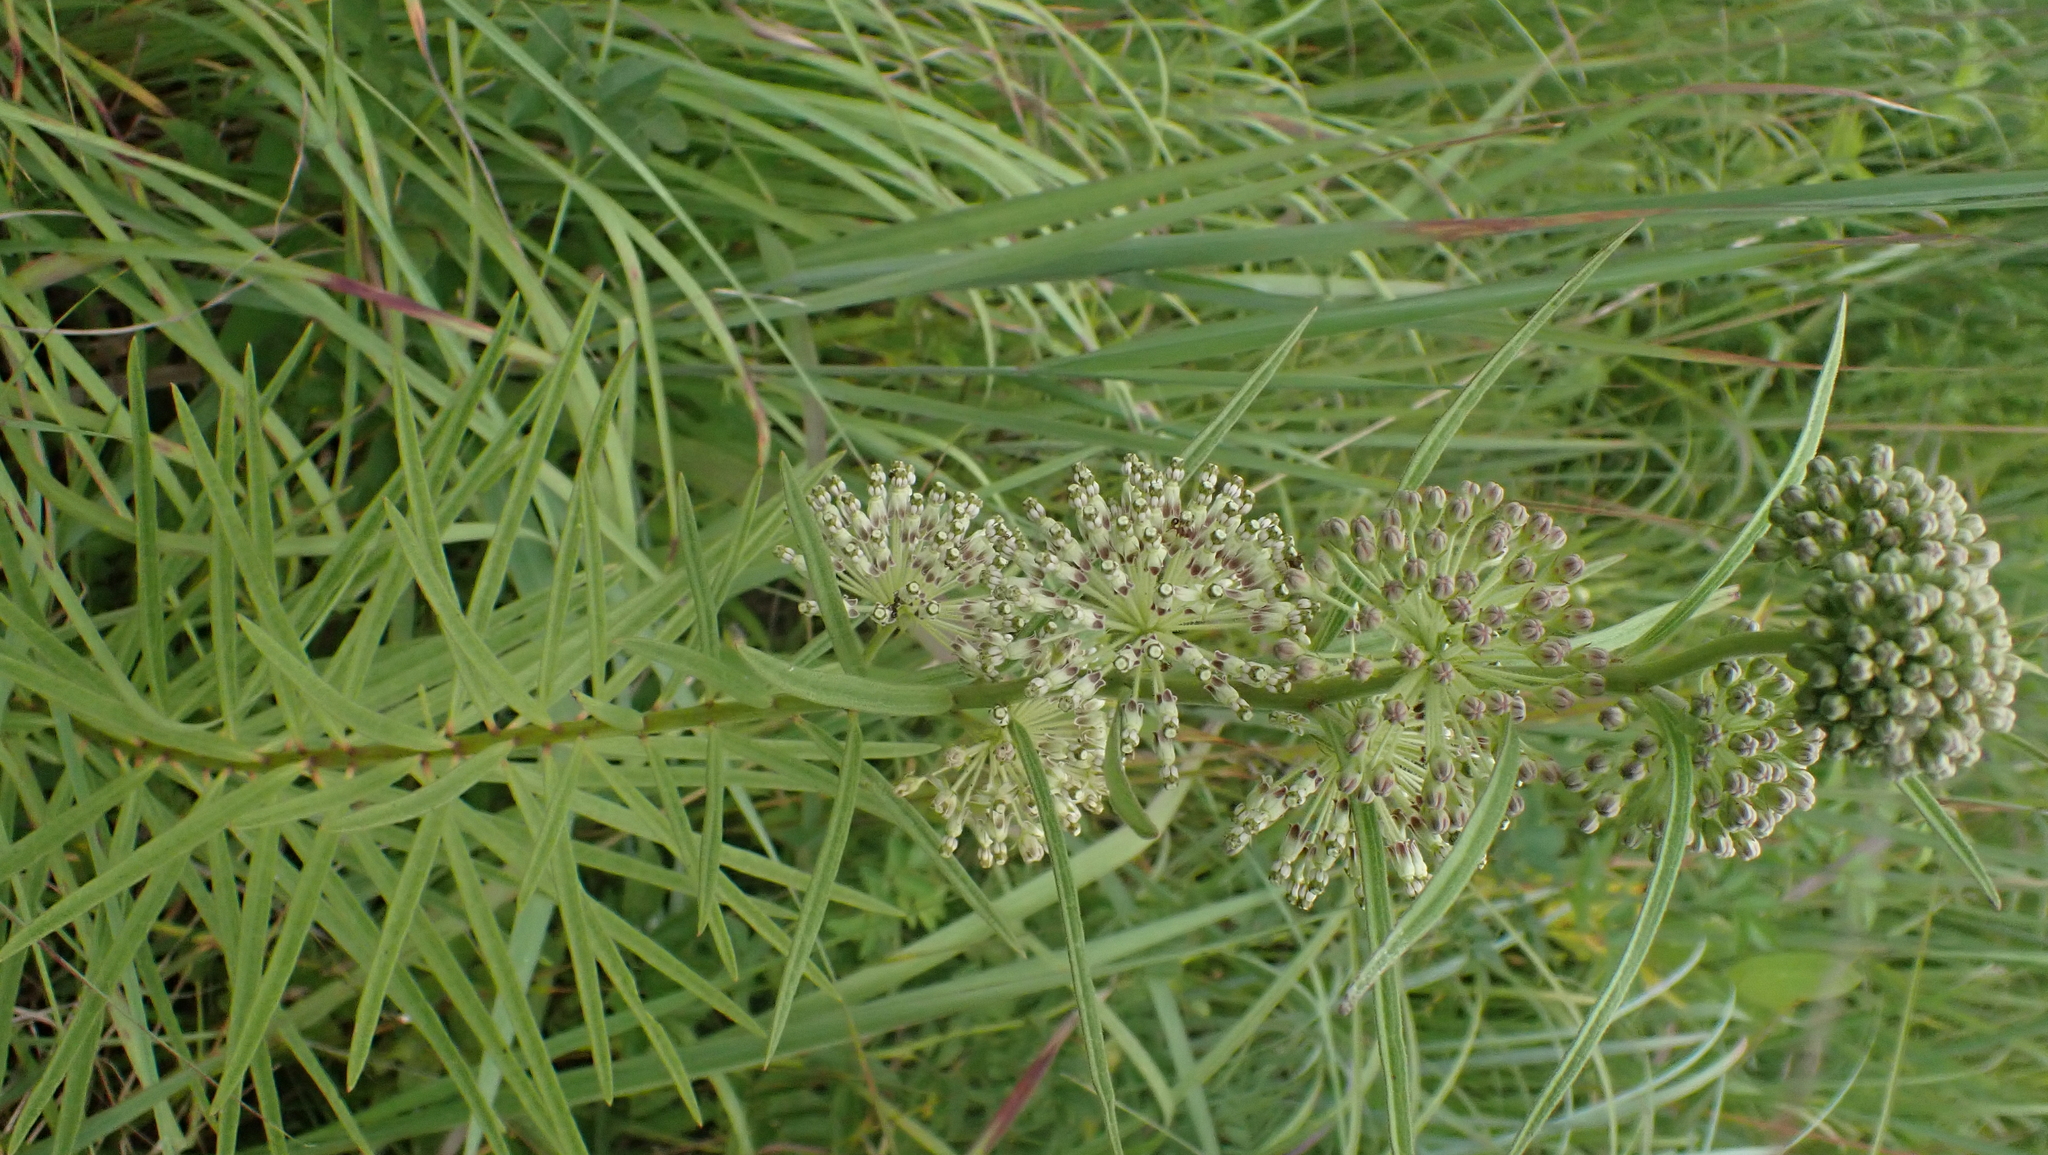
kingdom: Plantae
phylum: Tracheophyta
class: Magnoliopsida
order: Gentianales
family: Apocynaceae
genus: Asclepias
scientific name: Asclepias hirtella
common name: Prairie milkweed
